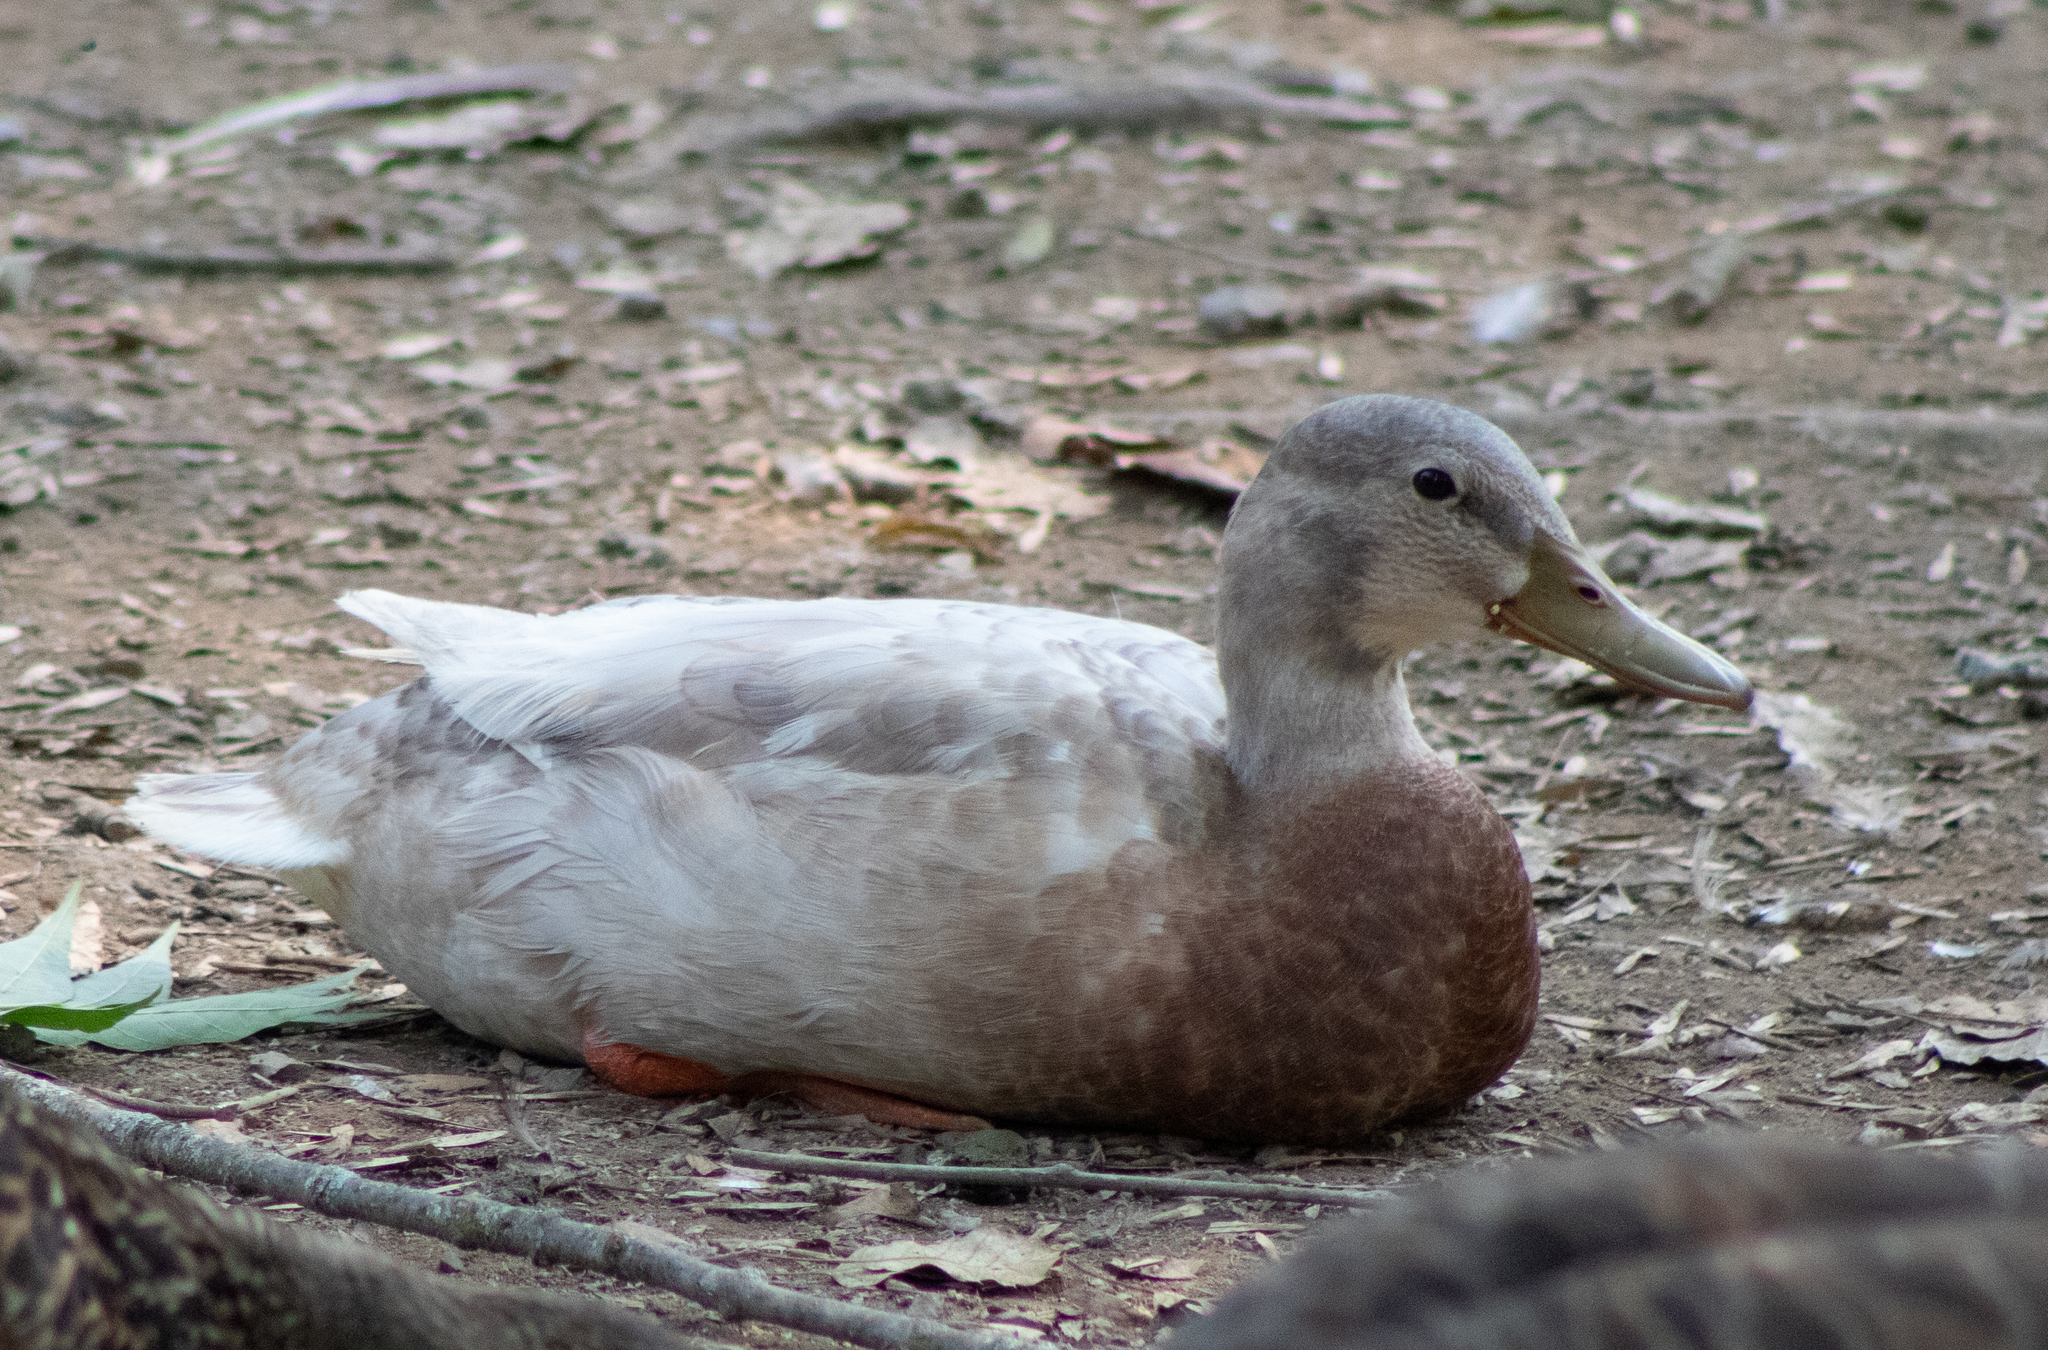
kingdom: Animalia
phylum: Chordata
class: Aves
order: Anseriformes
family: Anatidae
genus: Anas
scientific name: Anas platyrhynchos
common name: Mallard
